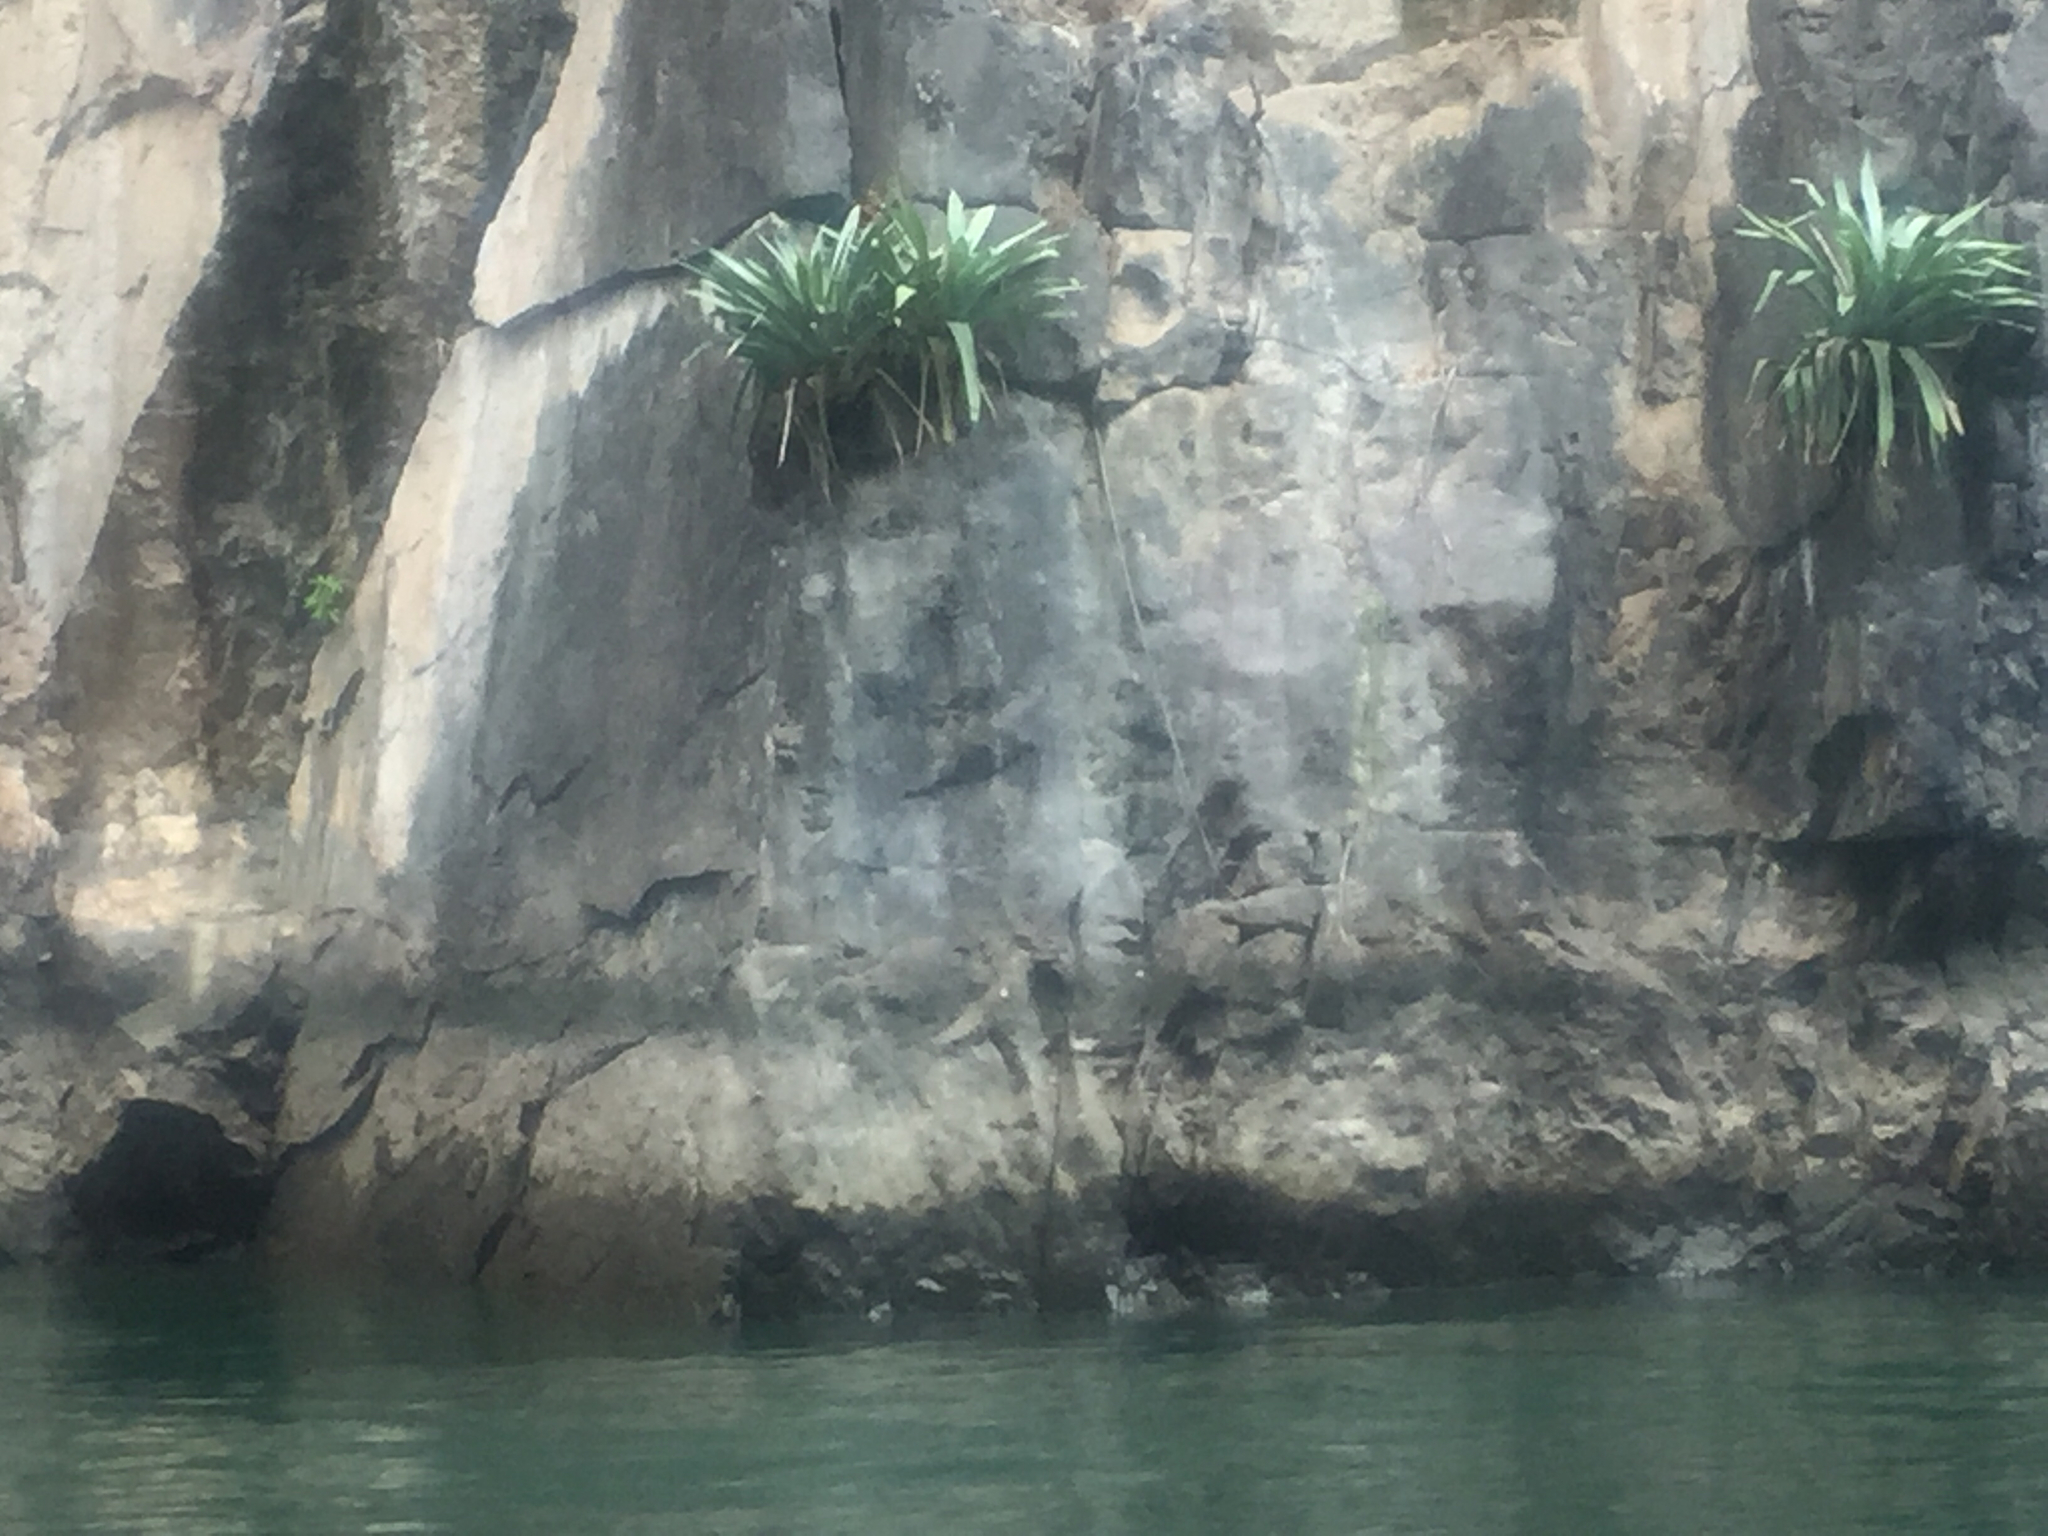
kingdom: Plantae
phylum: Tracheophyta
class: Liliopsida
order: Poales
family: Bromeliaceae
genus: Tillandsia
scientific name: Tillandsia juerg-rutschmannii
